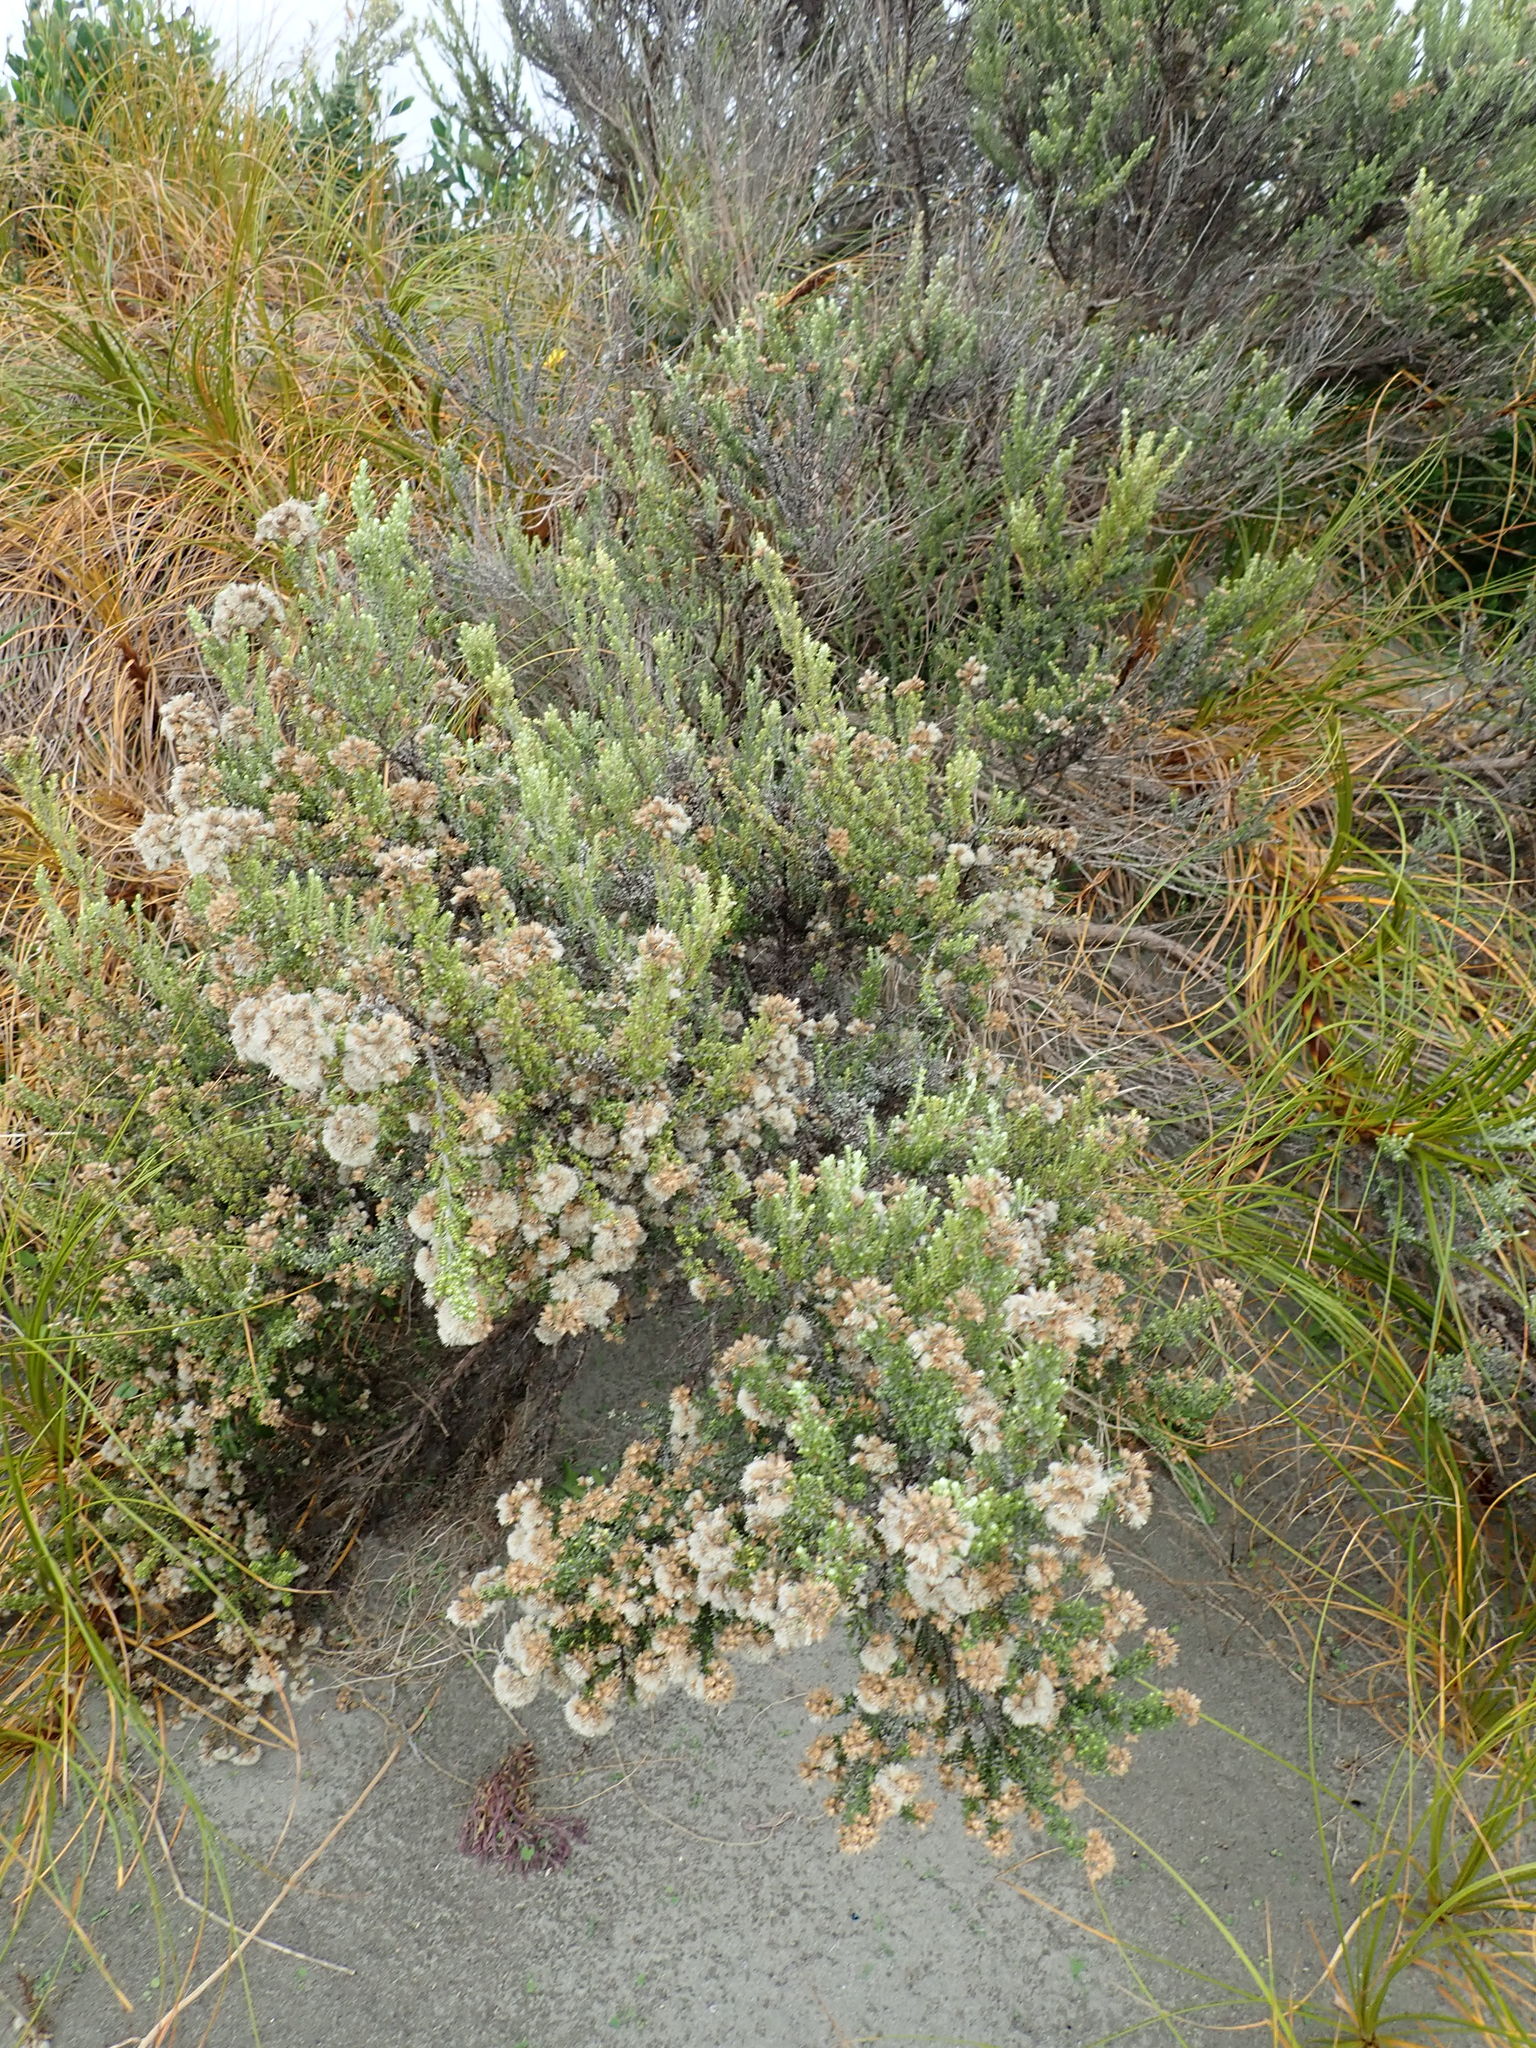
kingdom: Plantae
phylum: Tracheophyta
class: Magnoliopsida
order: Asterales
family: Asteraceae
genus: Ozothamnus
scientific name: Ozothamnus leptophyllus
